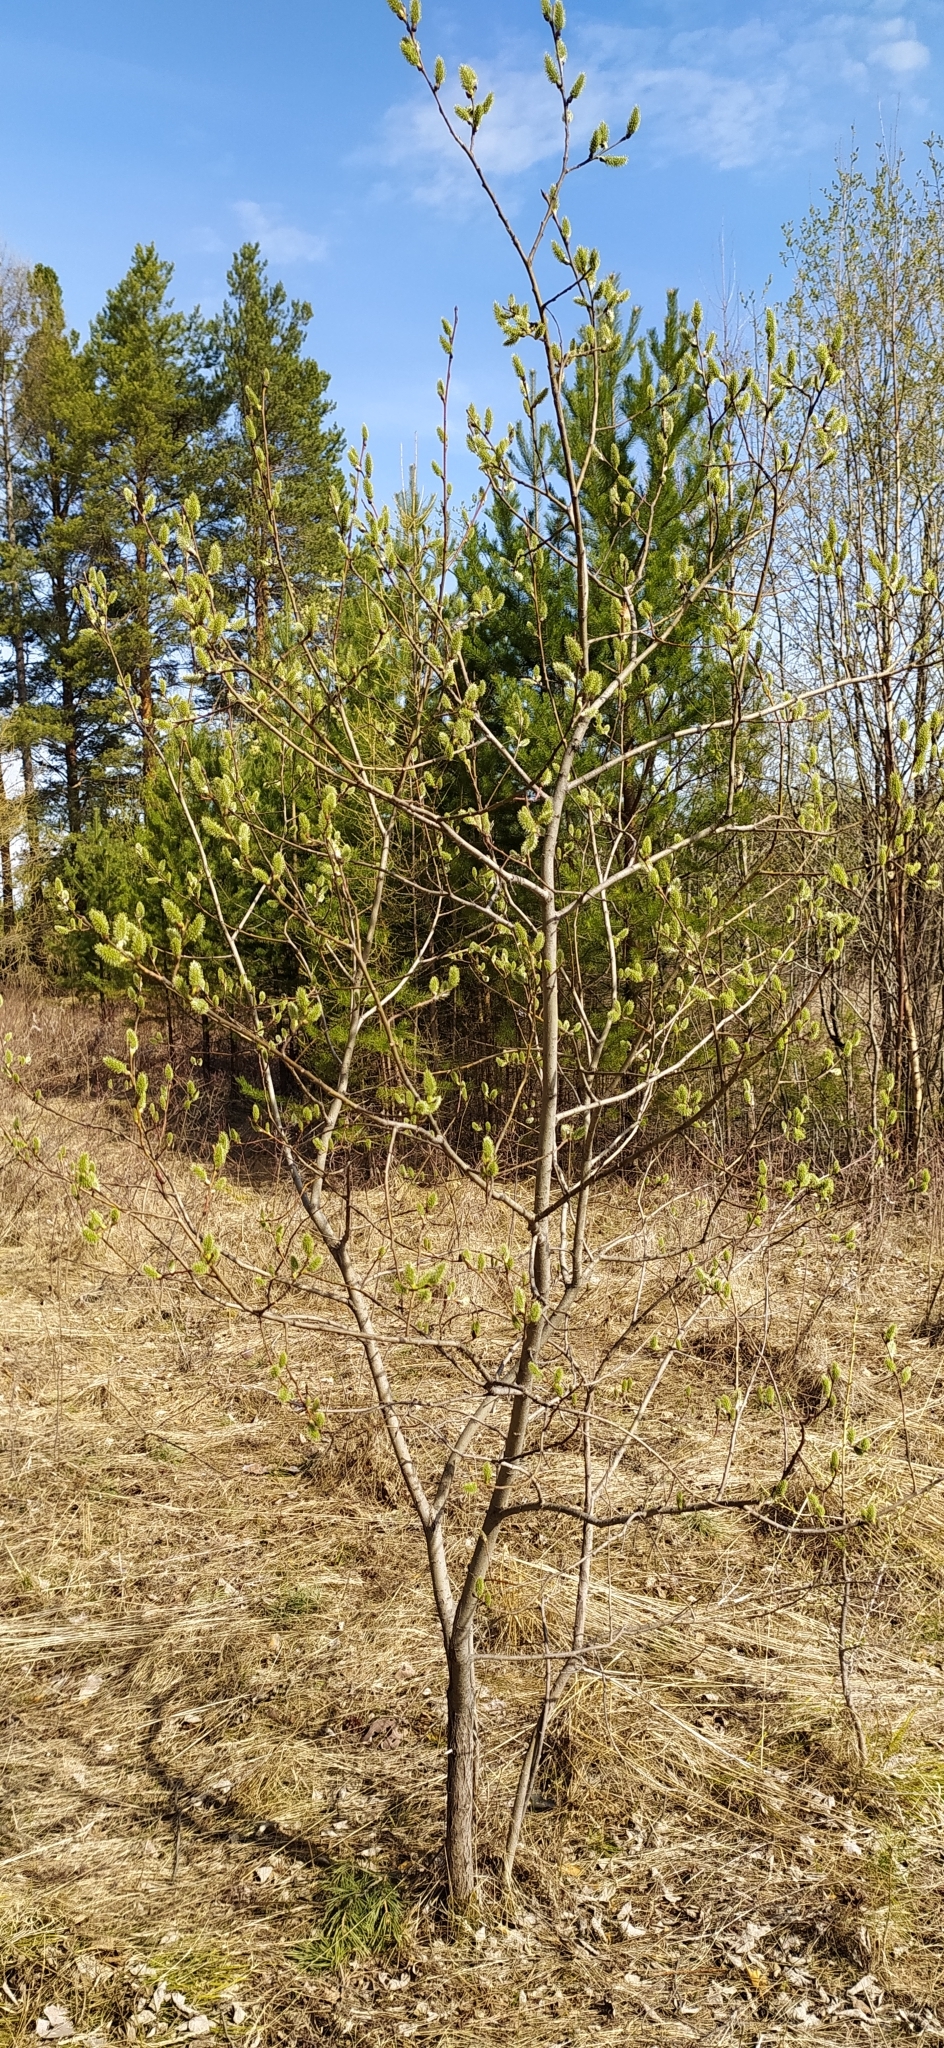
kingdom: Plantae
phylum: Tracheophyta
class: Magnoliopsida
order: Malpighiales
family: Salicaceae
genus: Salix
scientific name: Salix caprea
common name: Goat willow
